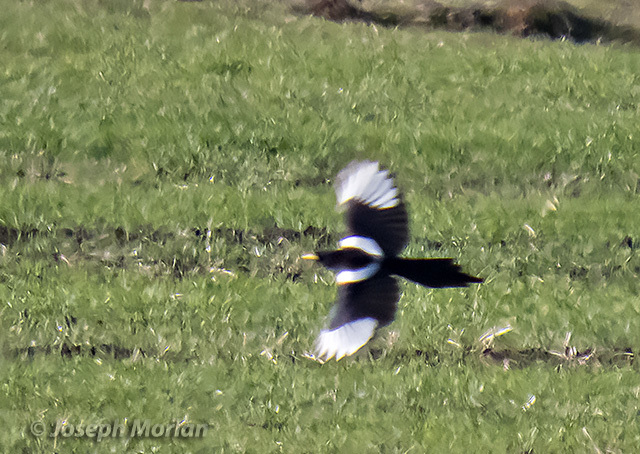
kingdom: Animalia
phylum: Chordata
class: Aves
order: Passeriformes
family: Corvidae
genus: Pica
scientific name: Pica nuttalli
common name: Yellow-billed magpie
